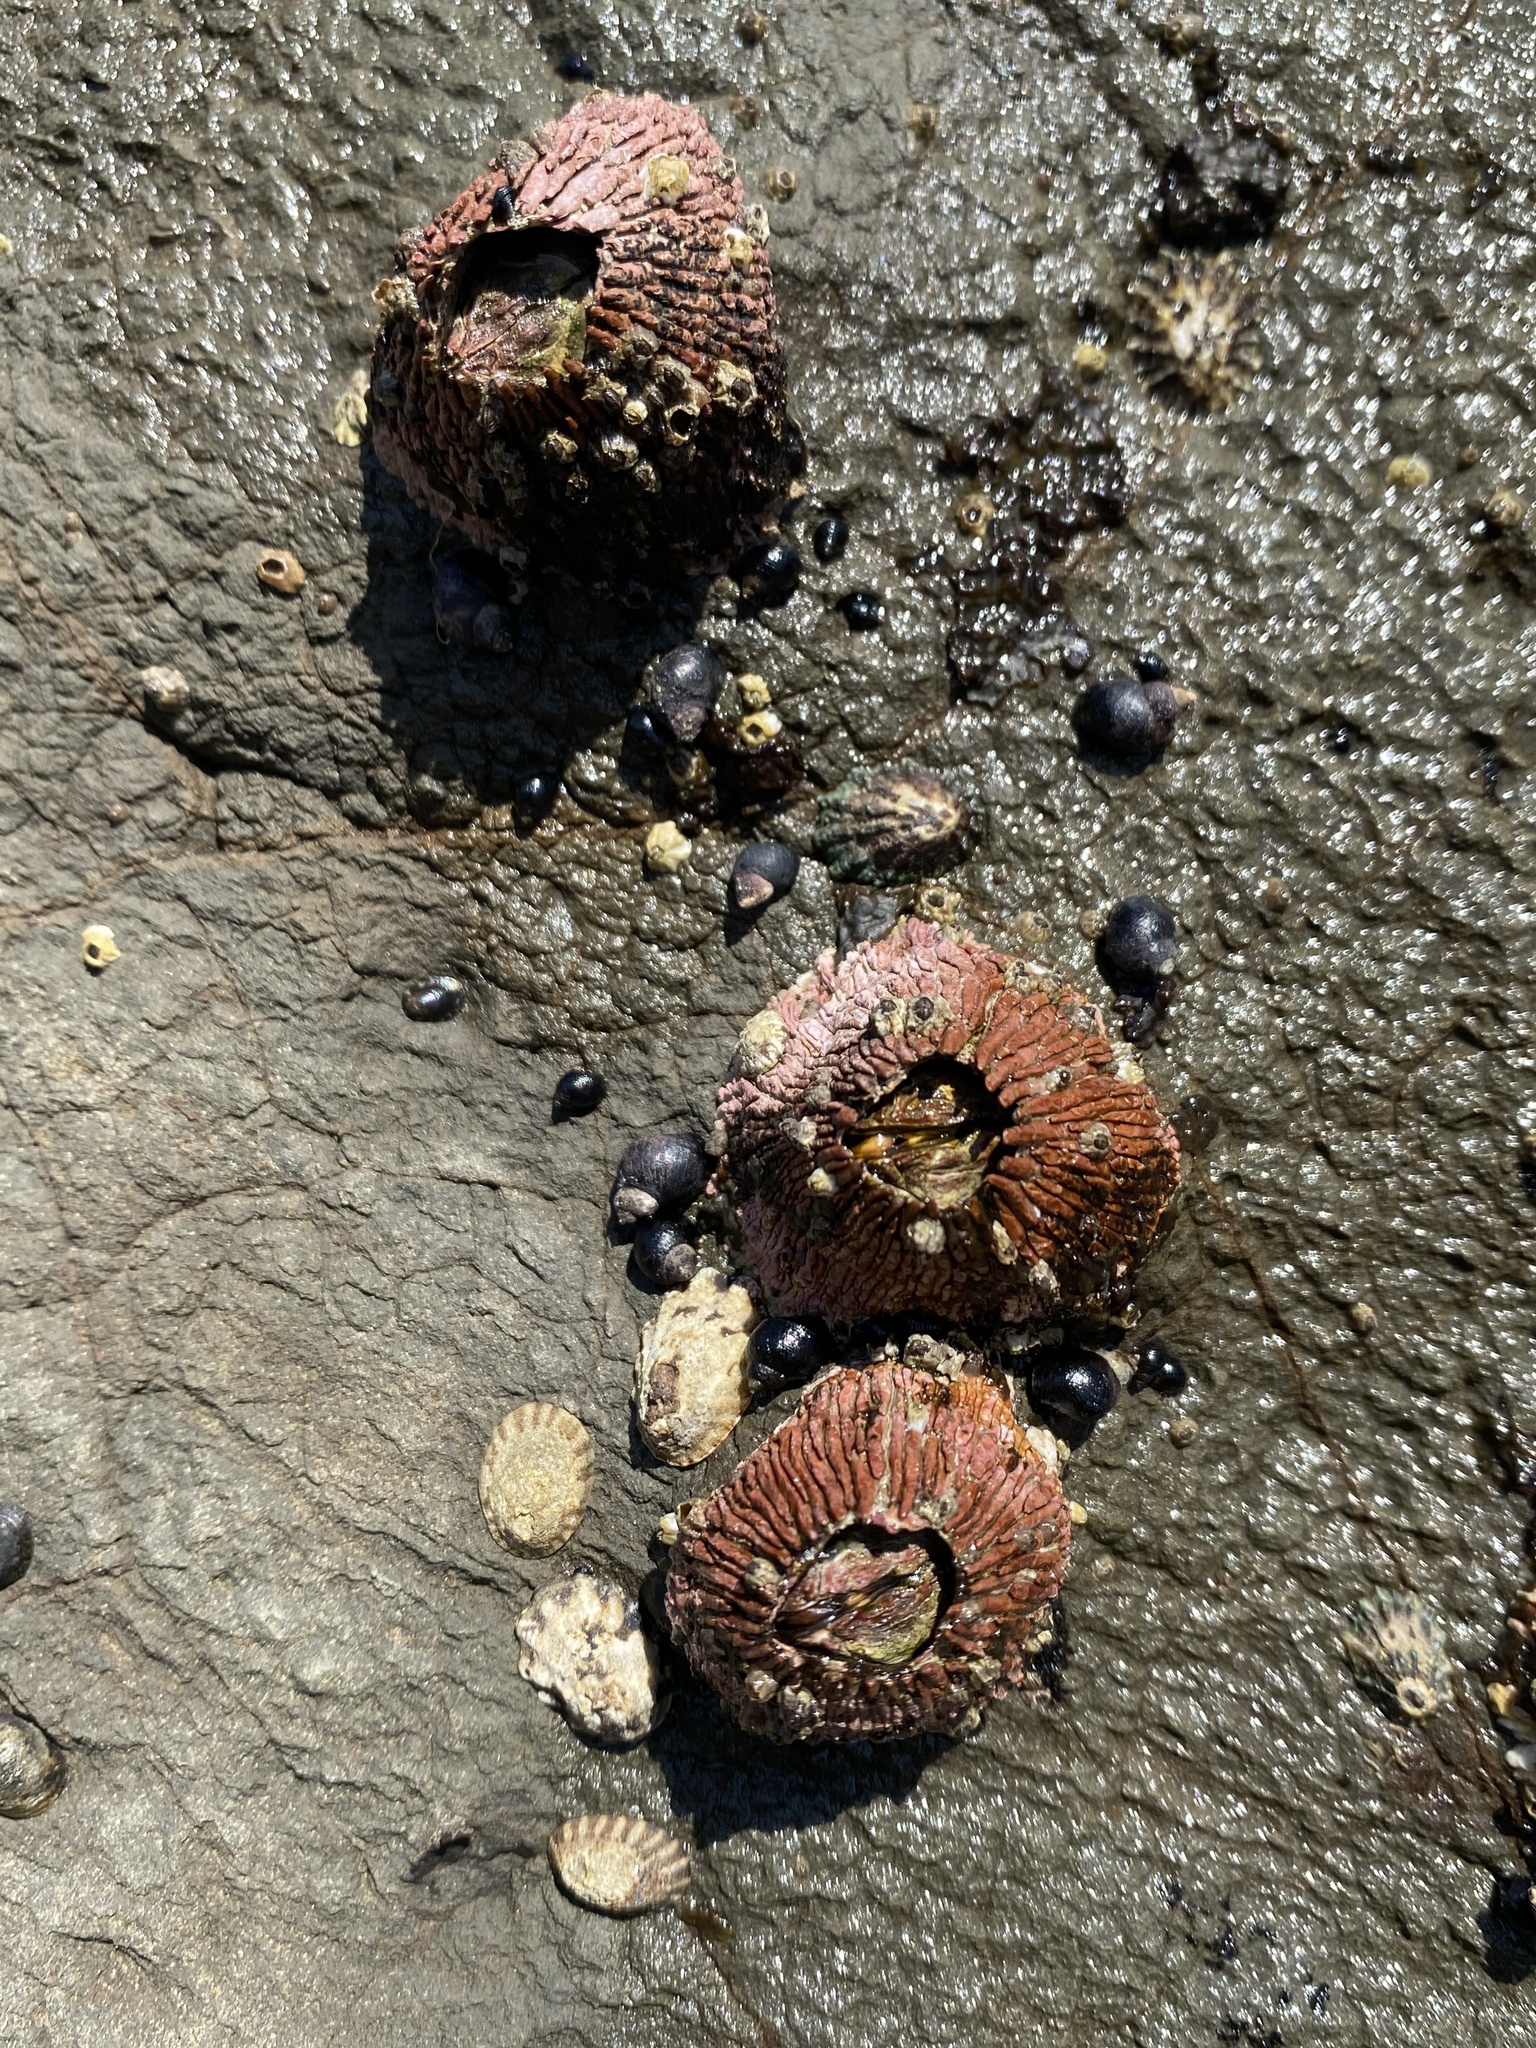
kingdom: Animalia
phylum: Arthropoda
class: Maxillopoda
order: Sessilia
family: Tetraclitidae
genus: Tetraclita
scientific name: Tetraclita rubescens
